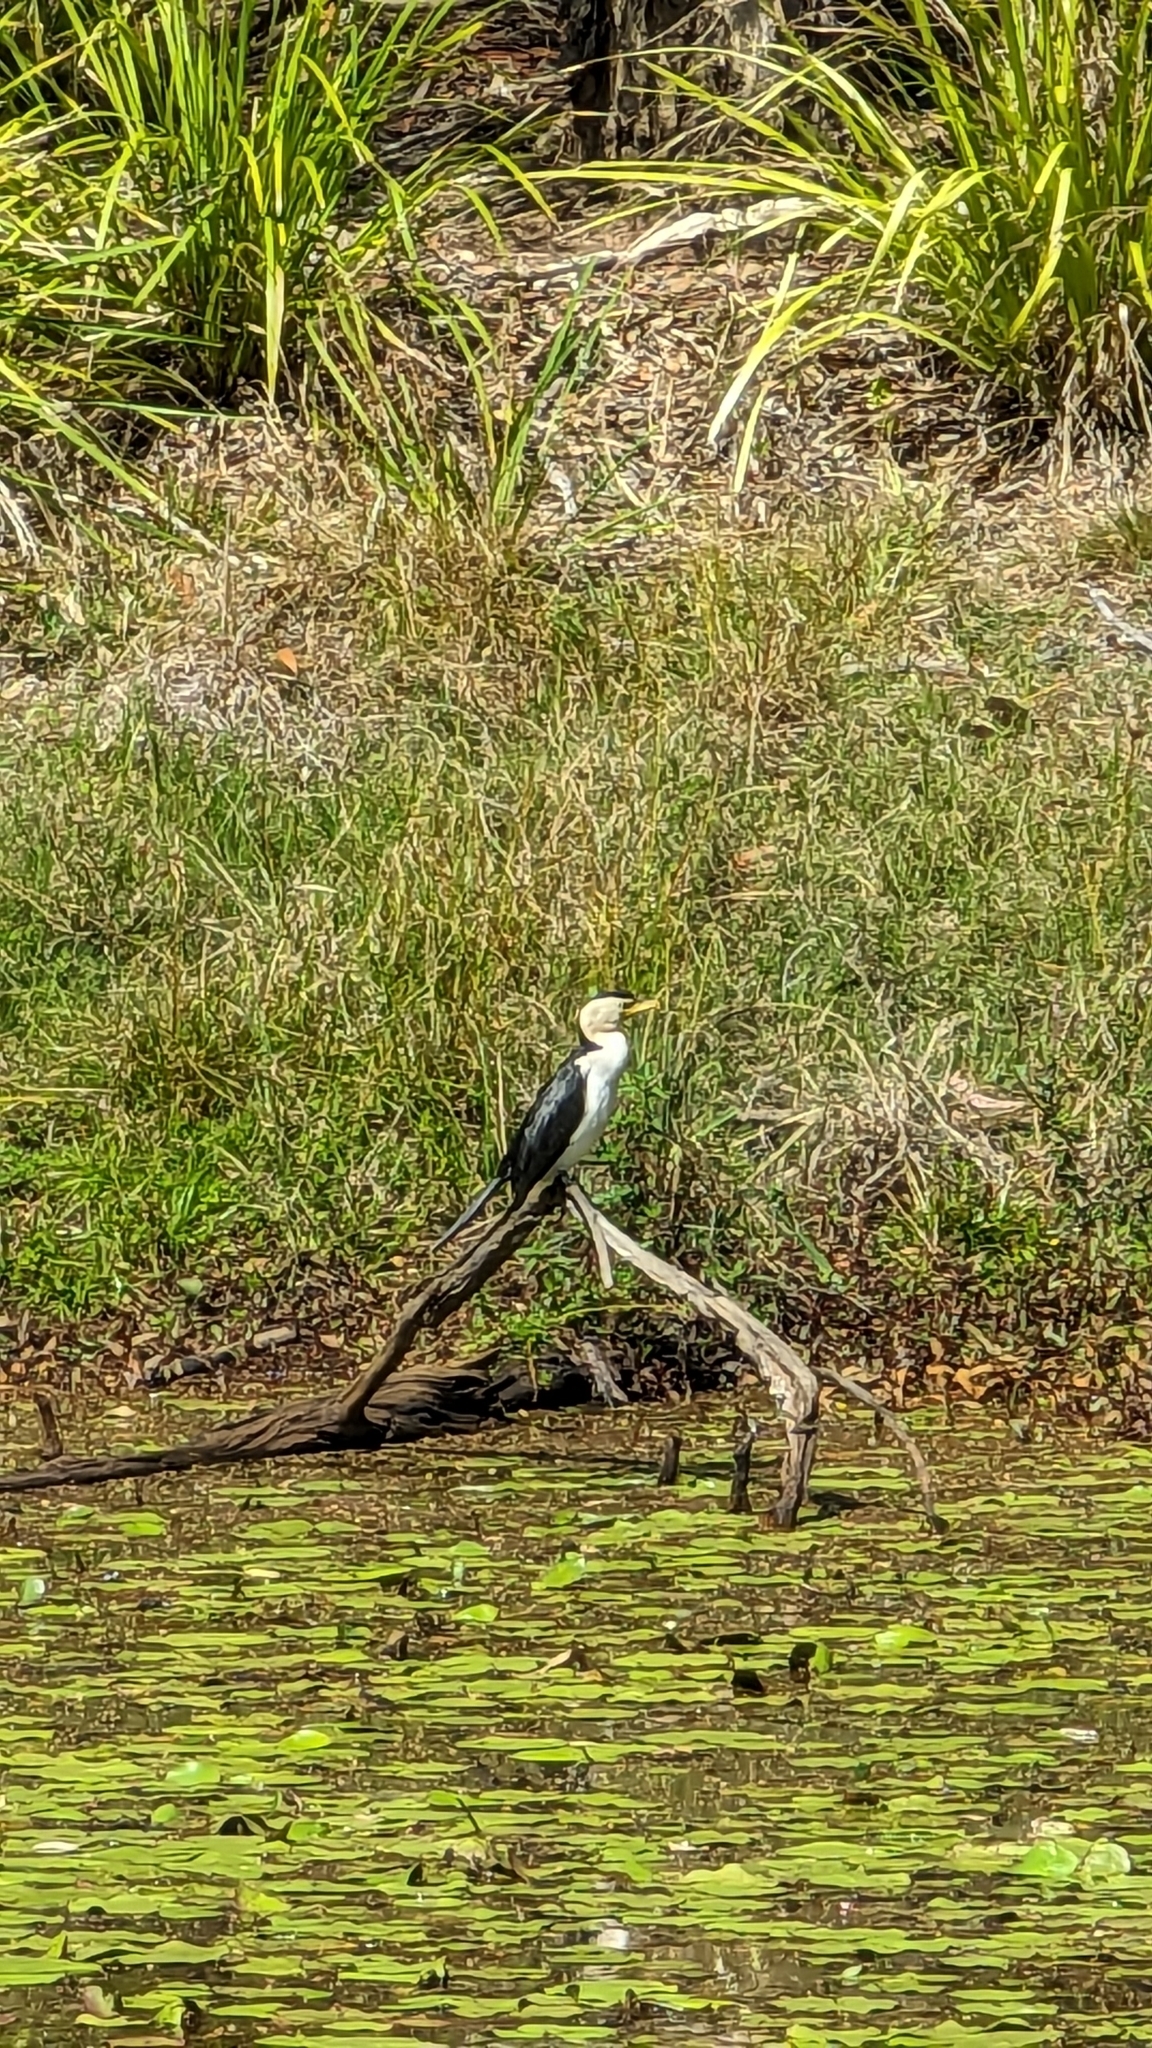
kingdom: Animalia
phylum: Chordata
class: Aves
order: Suliformes
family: Phalacrocoracidae
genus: Microcarbo
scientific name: Microcarbo melanoleucos
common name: Little pied cormorant
